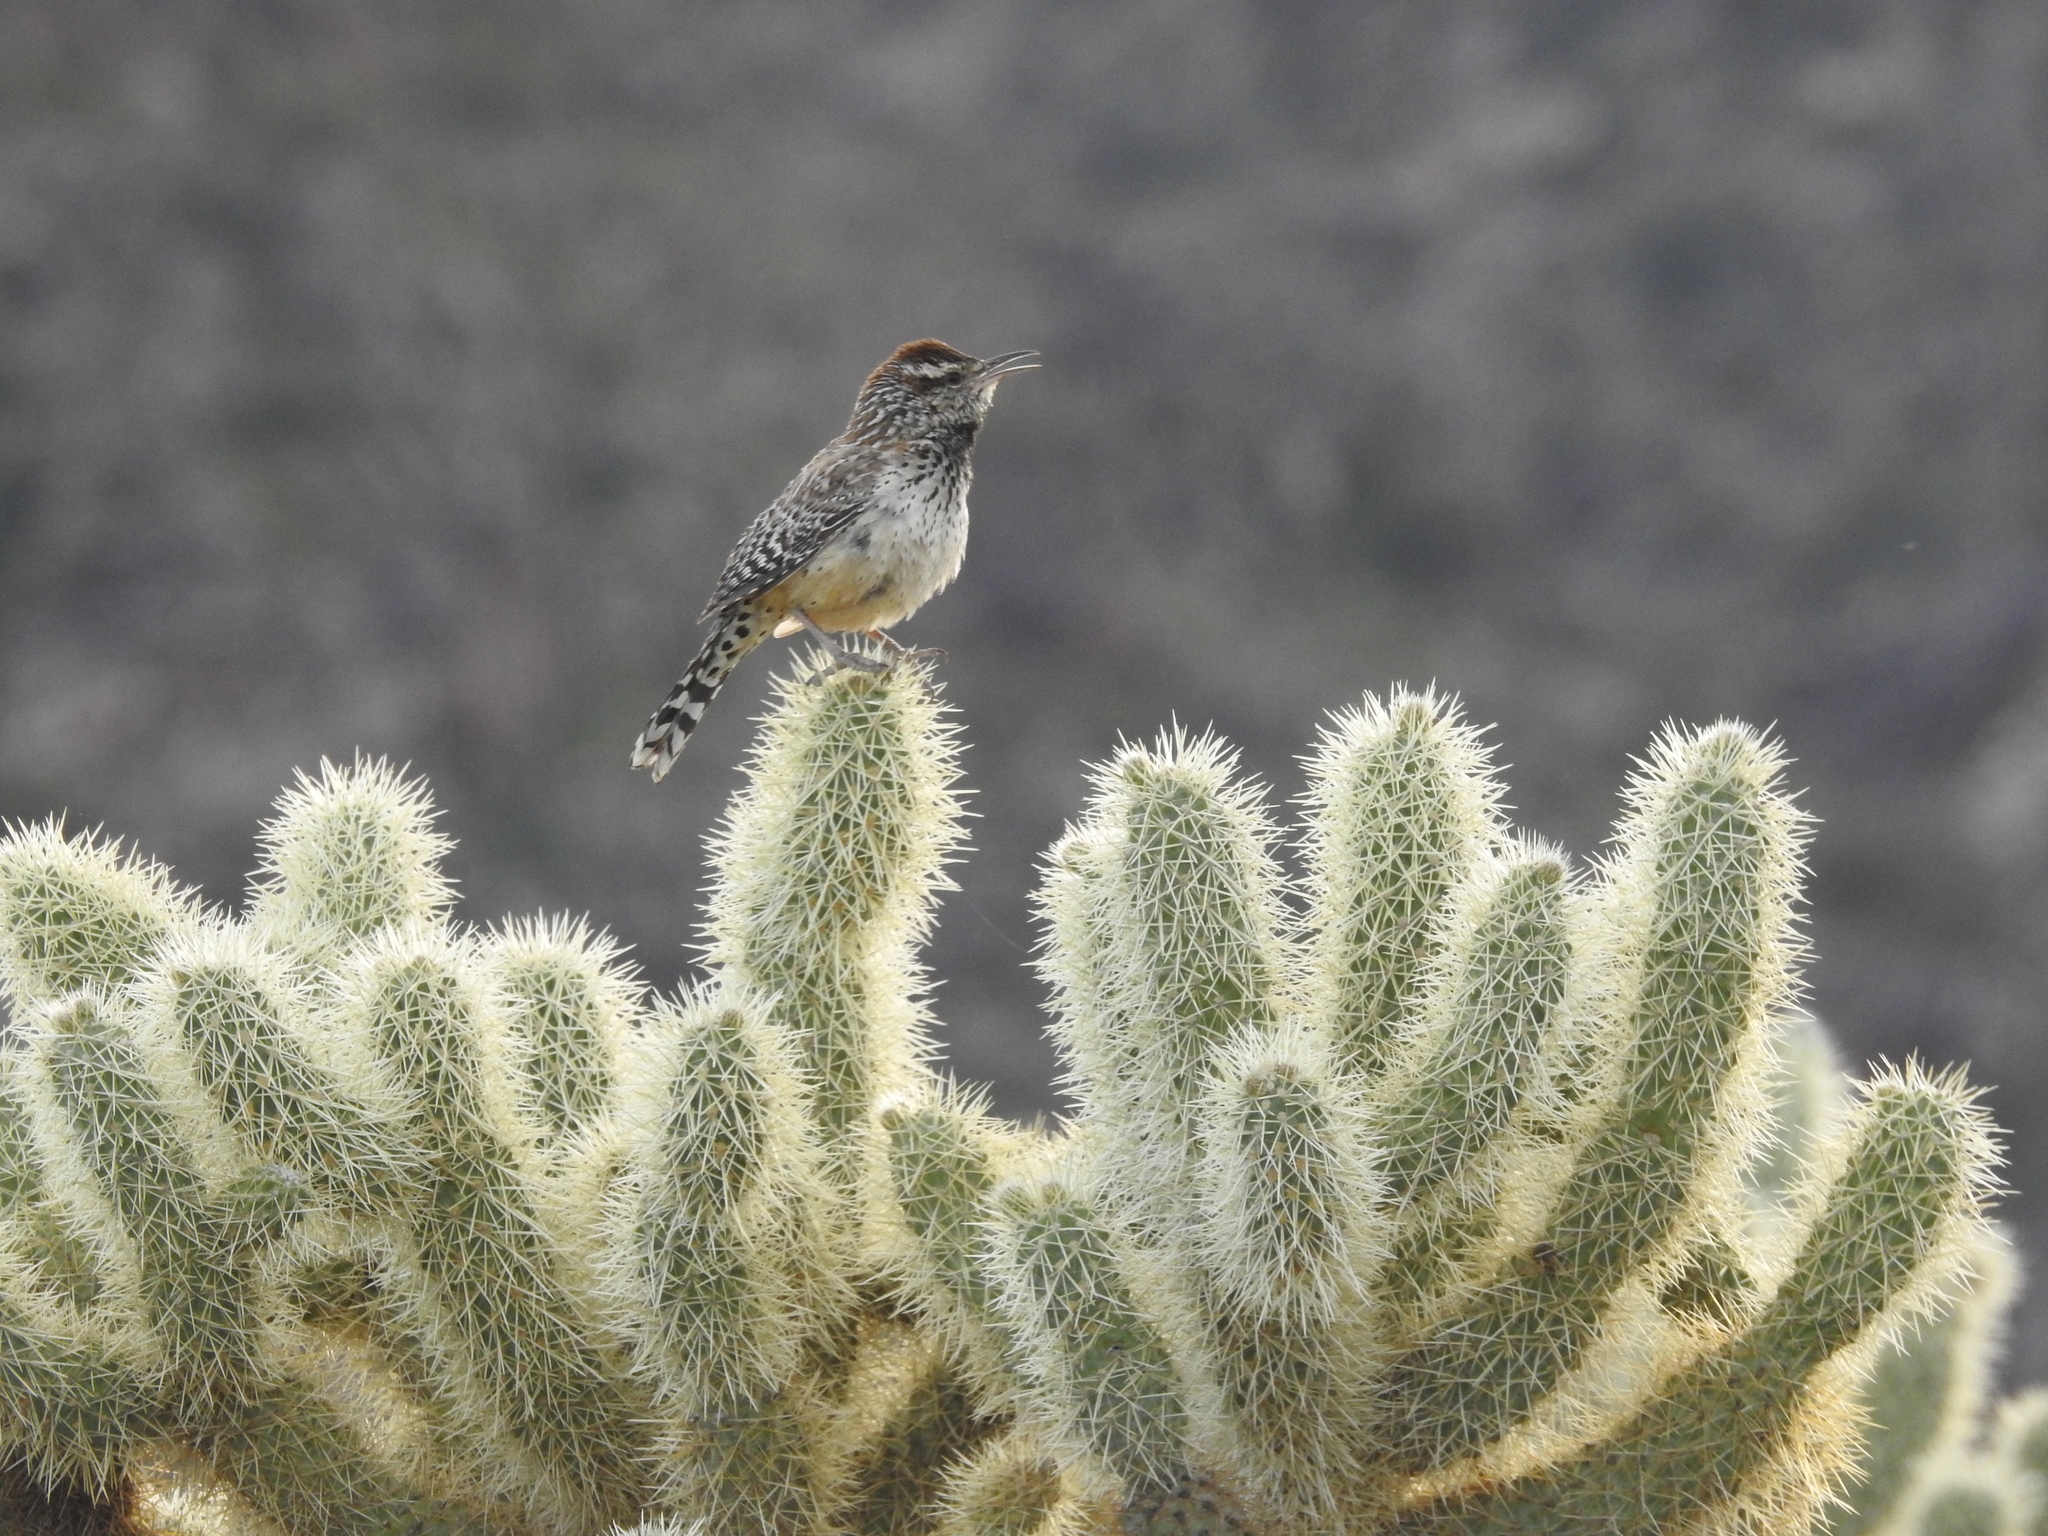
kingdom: Animalia
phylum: Chordata
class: Aves
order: Passeriformes
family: Troglodytidae
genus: Campylorhynchus
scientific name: Campylorhynchus brunneicapillus
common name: Cactus wren
